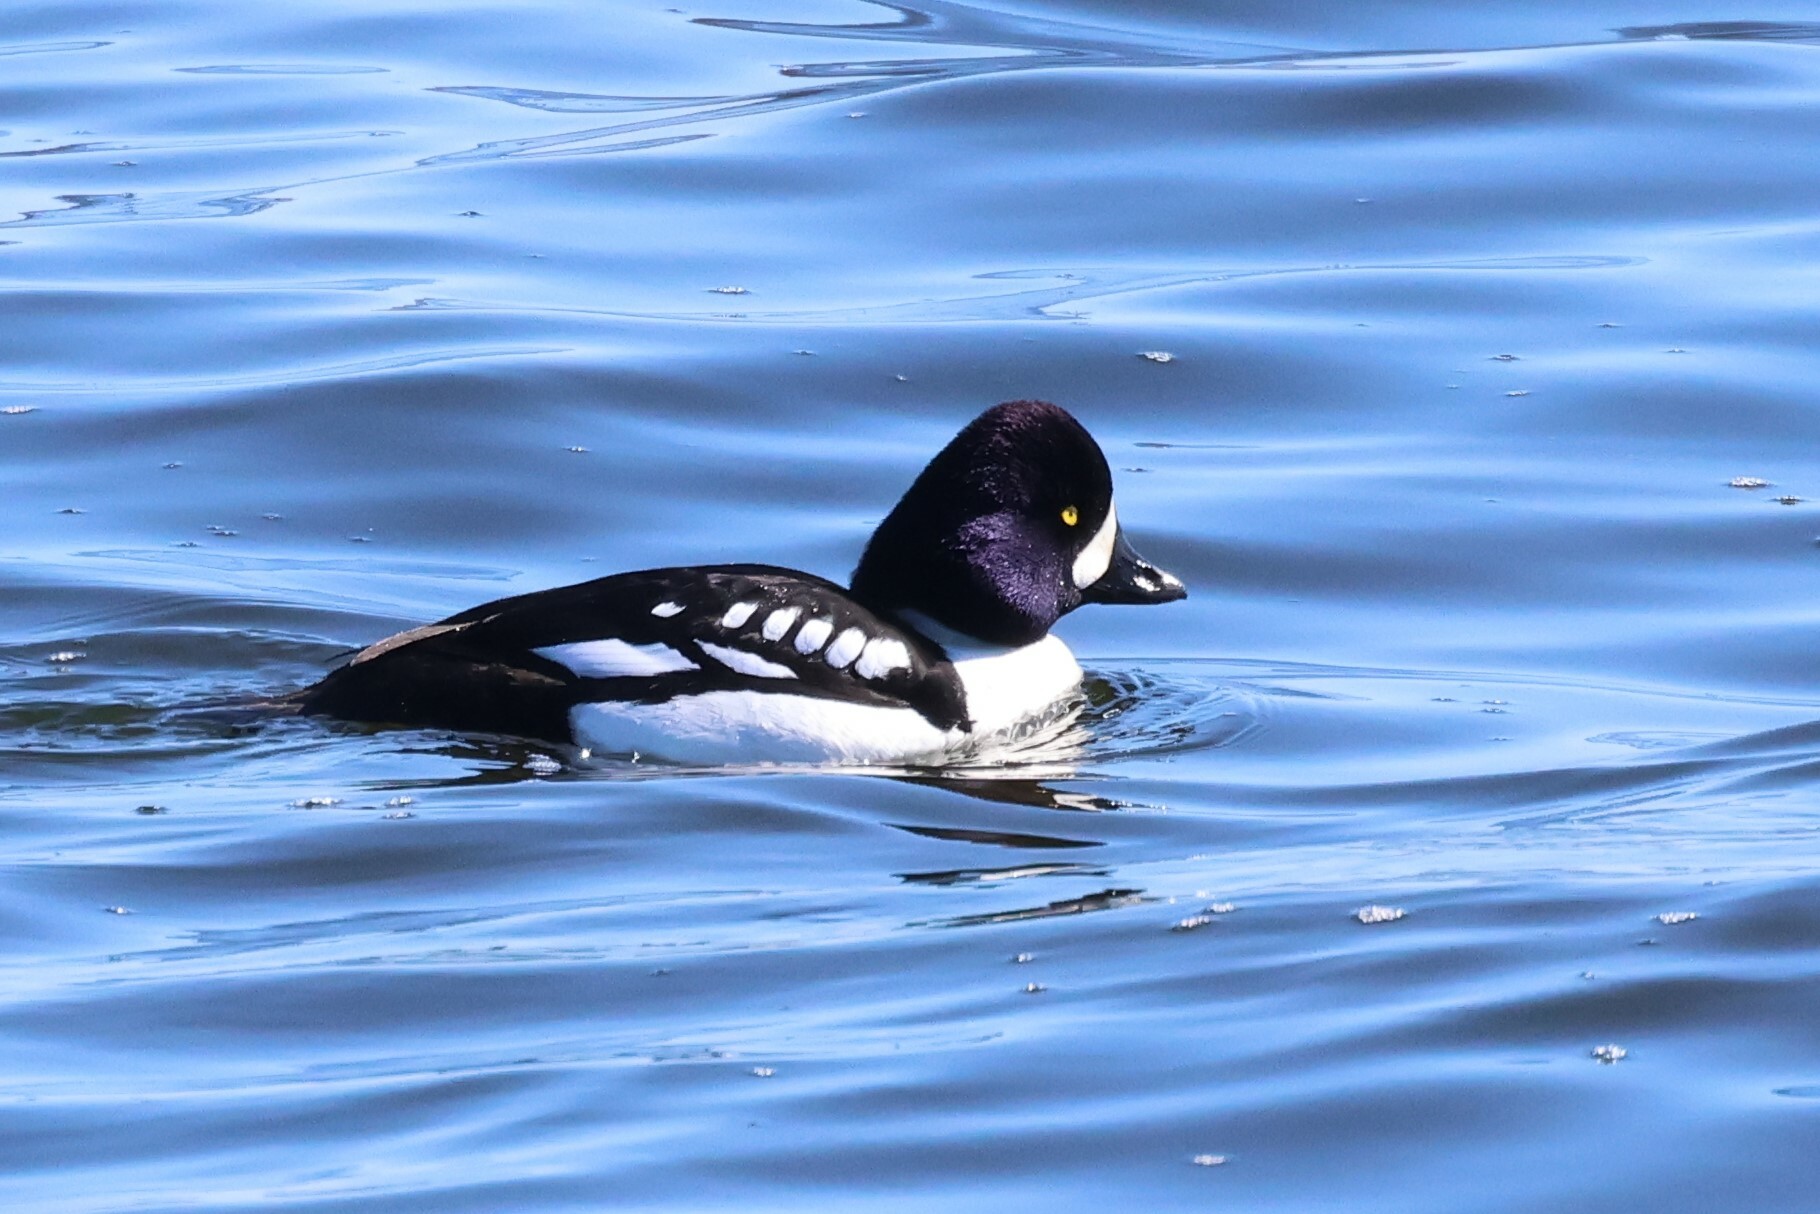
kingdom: Animalia
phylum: Chordata
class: Aves
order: Anseriformes
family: Anatidae
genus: Bucephala
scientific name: Bucephala islandica
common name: Barrow's goldeneye
